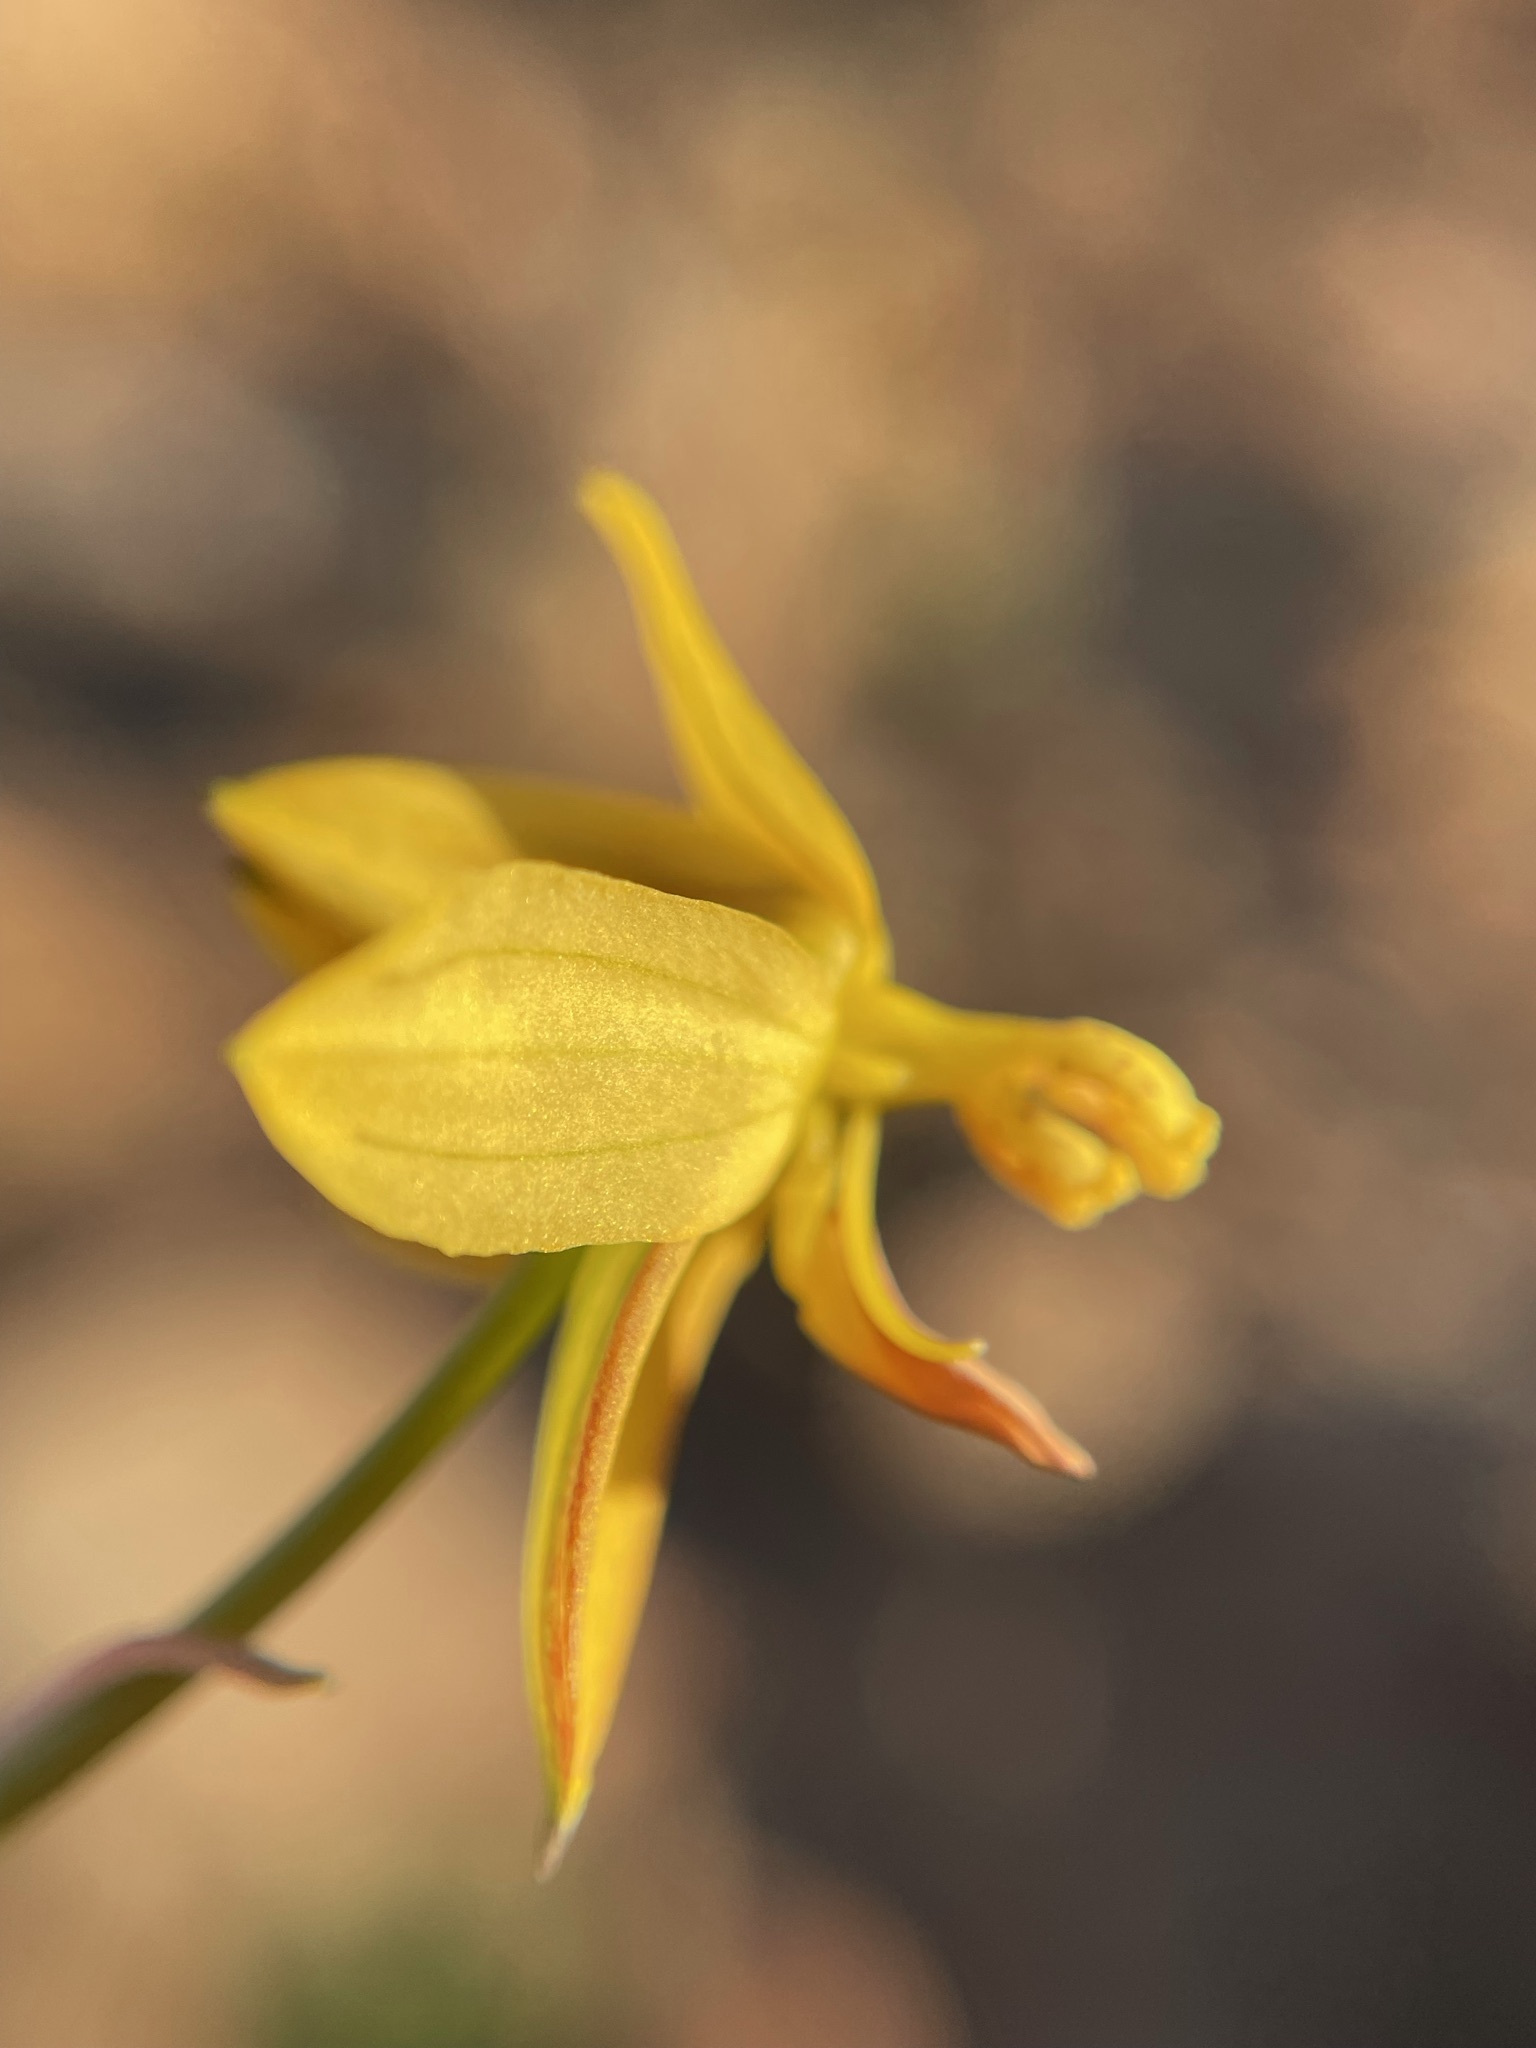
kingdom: Plantae
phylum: Tracheophyta
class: Liliopsida
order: Asparagales
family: Tecophilaeaceae
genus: Cyanella
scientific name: Cyanella lutea
